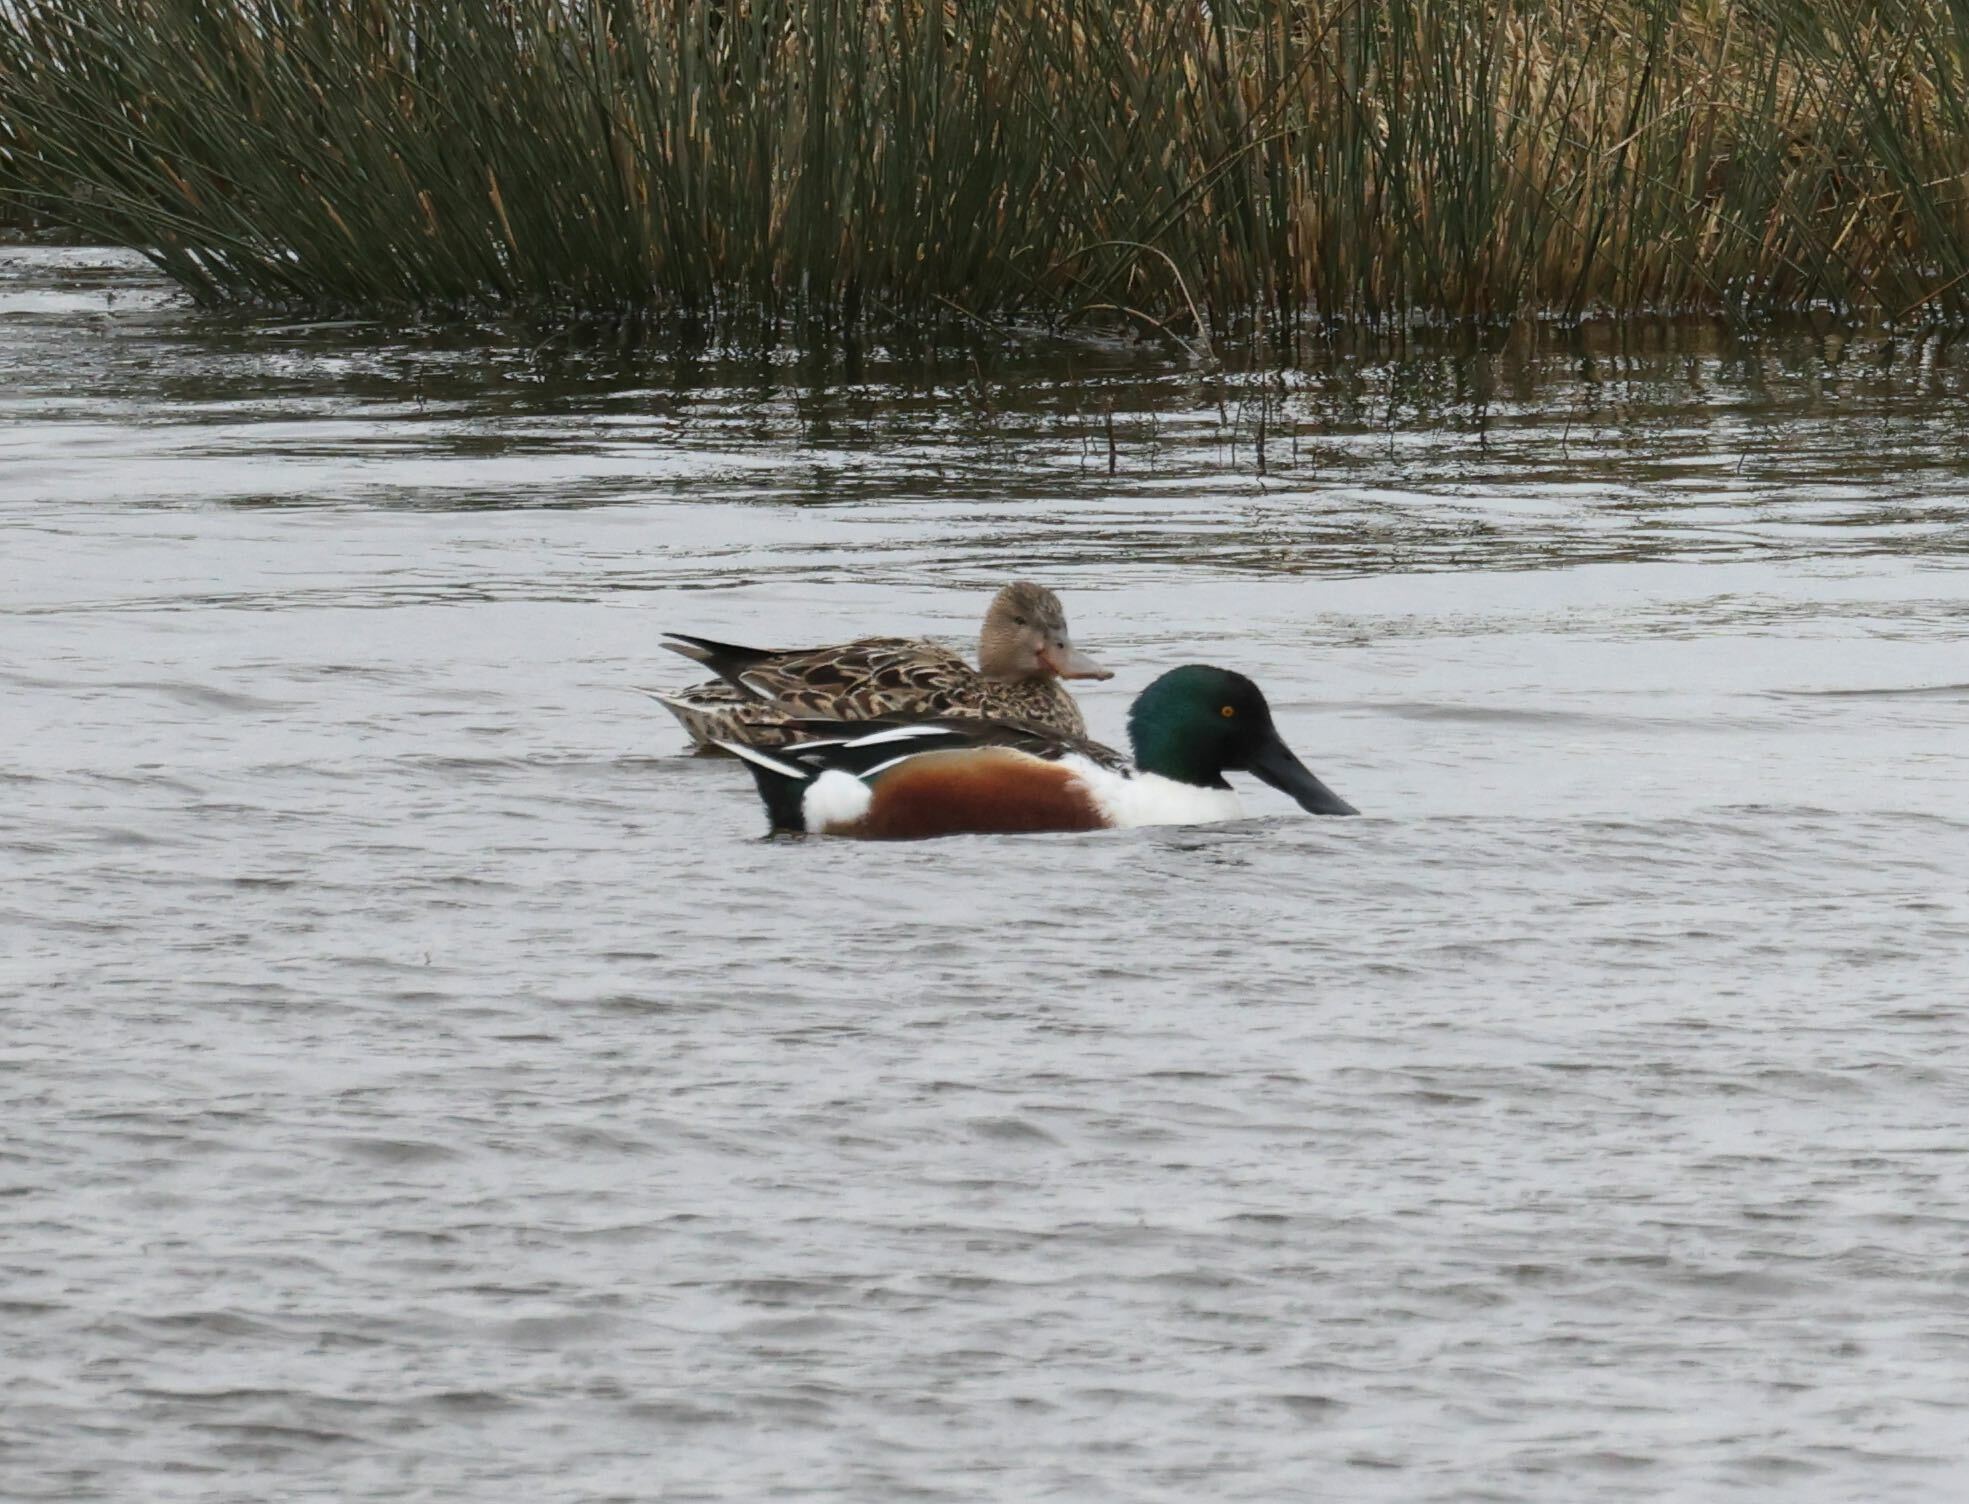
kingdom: Animalia
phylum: Chordata
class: Aves
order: Anseriformes
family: Anatidae
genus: Spatula
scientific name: Spatula clypeata
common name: Northern shoveler
